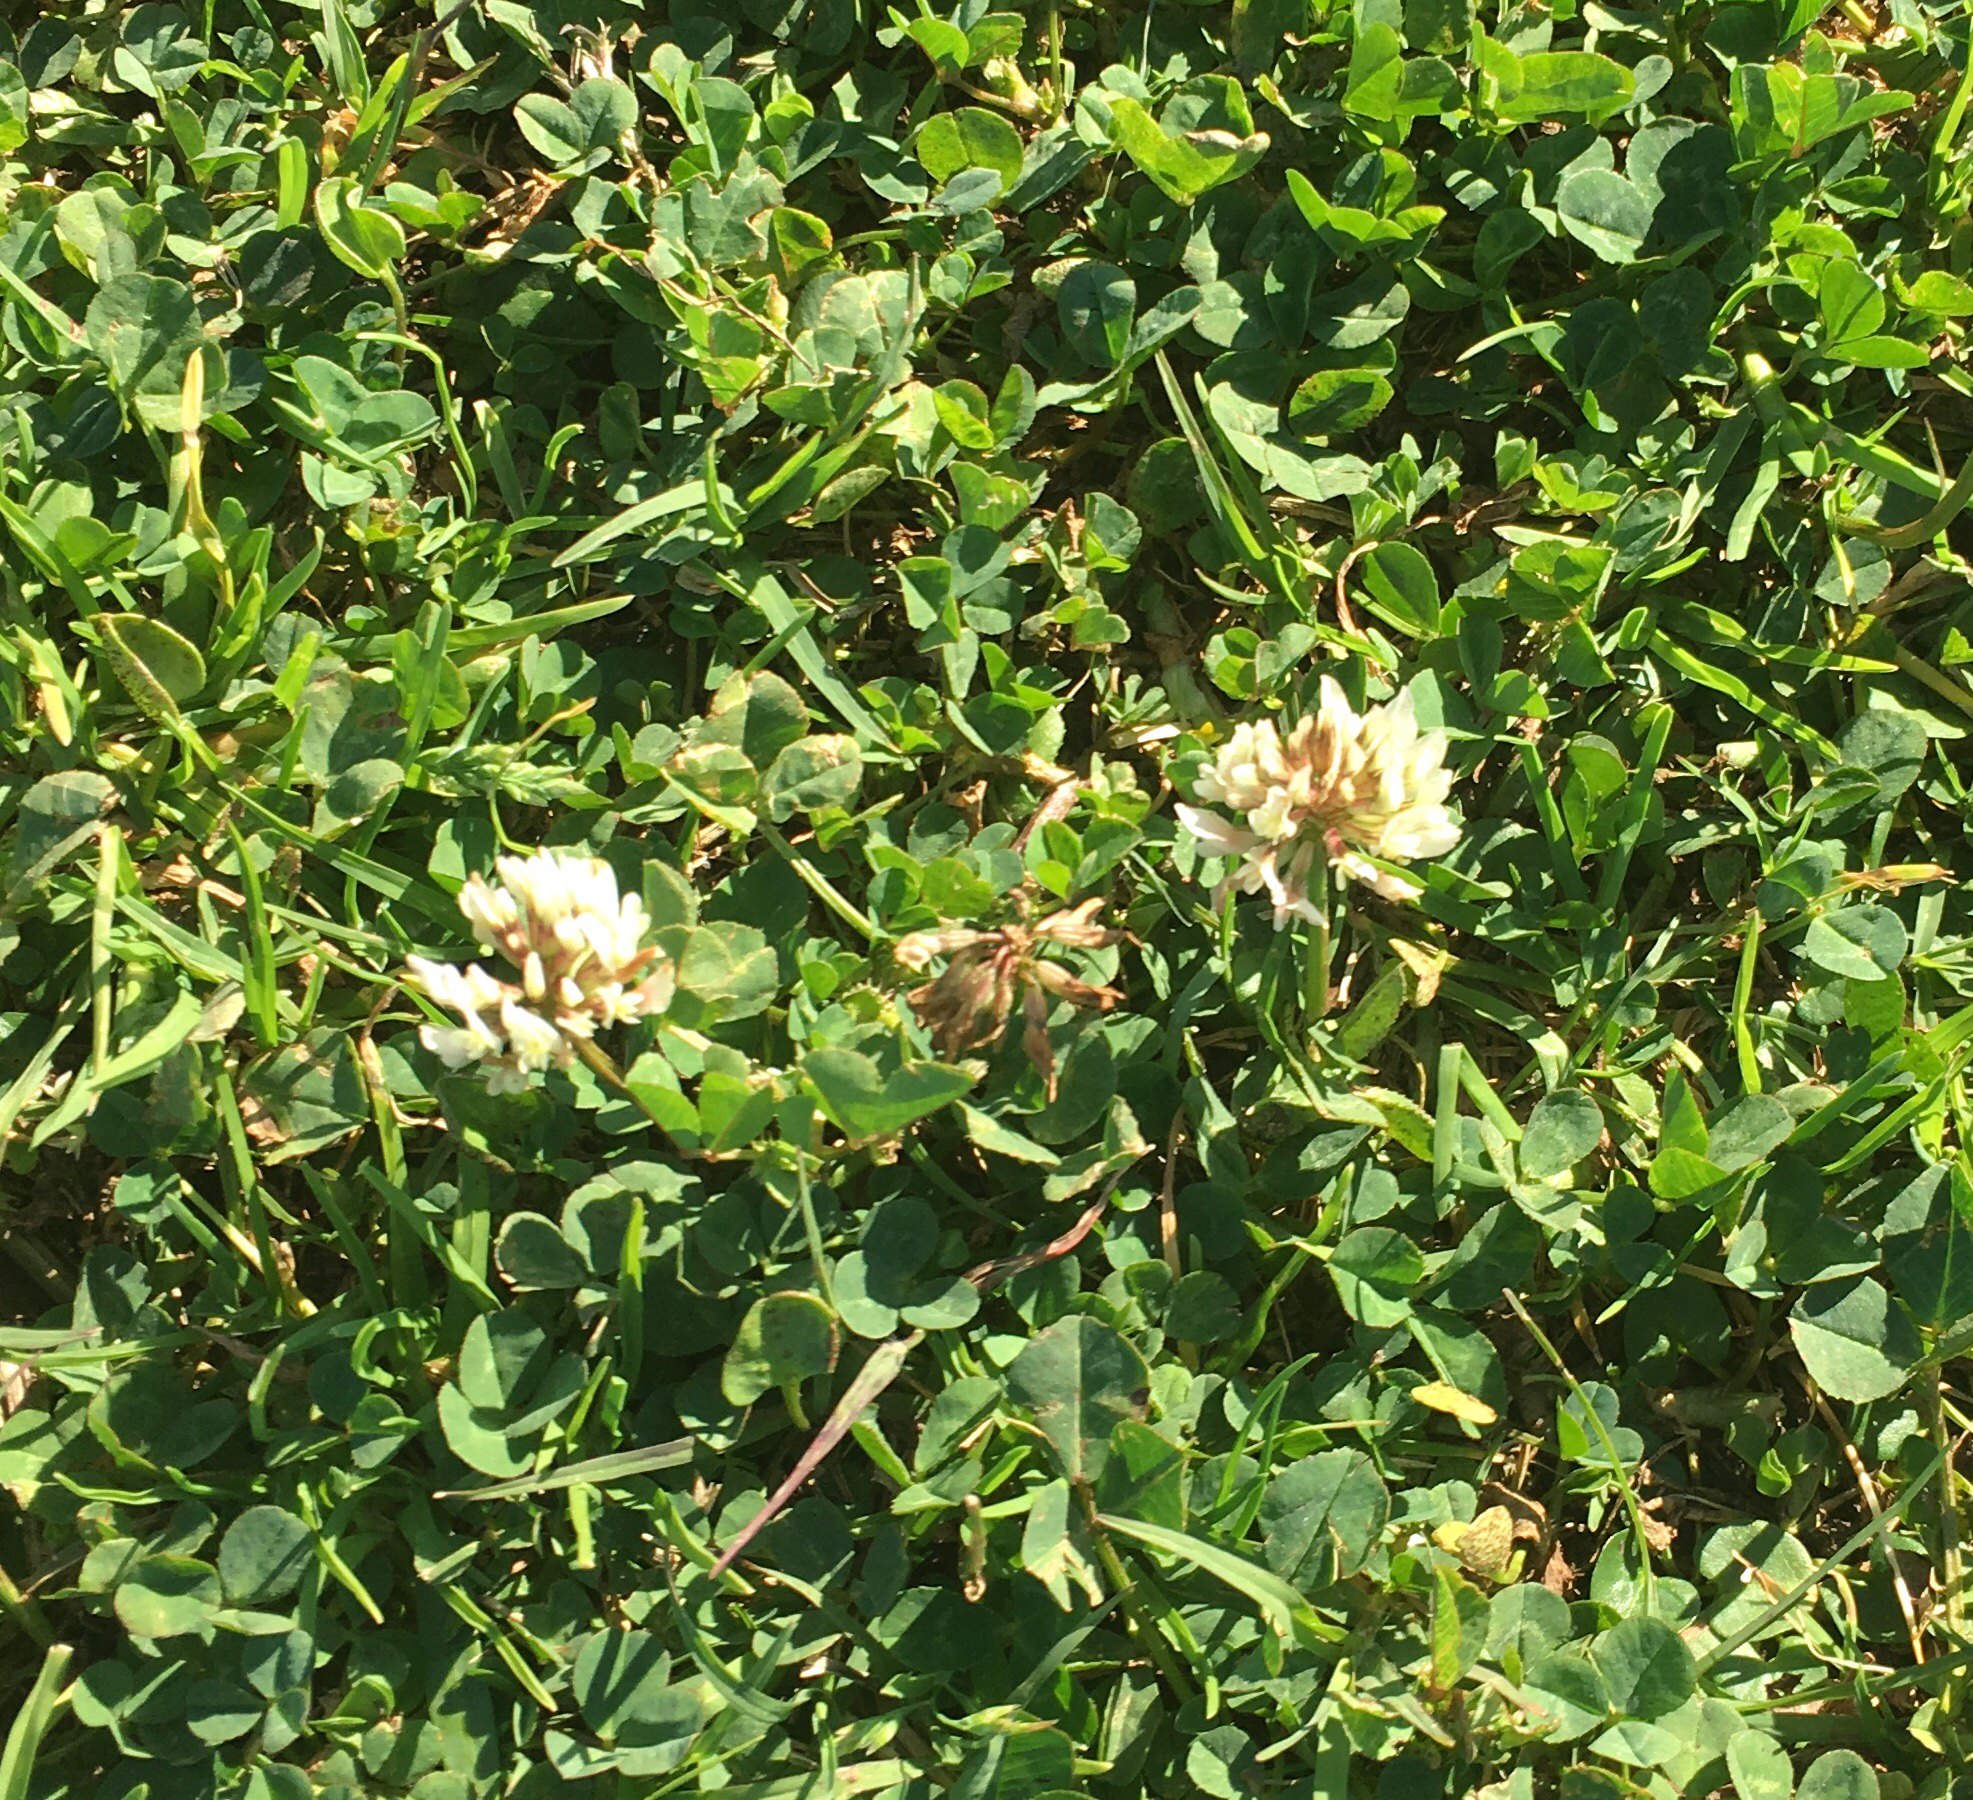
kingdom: Plantae
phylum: Tracheophyta
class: Magnoliopsida
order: Fabales
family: Fabaceae
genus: Trifolium
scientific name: Trifolium repens
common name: White clover
